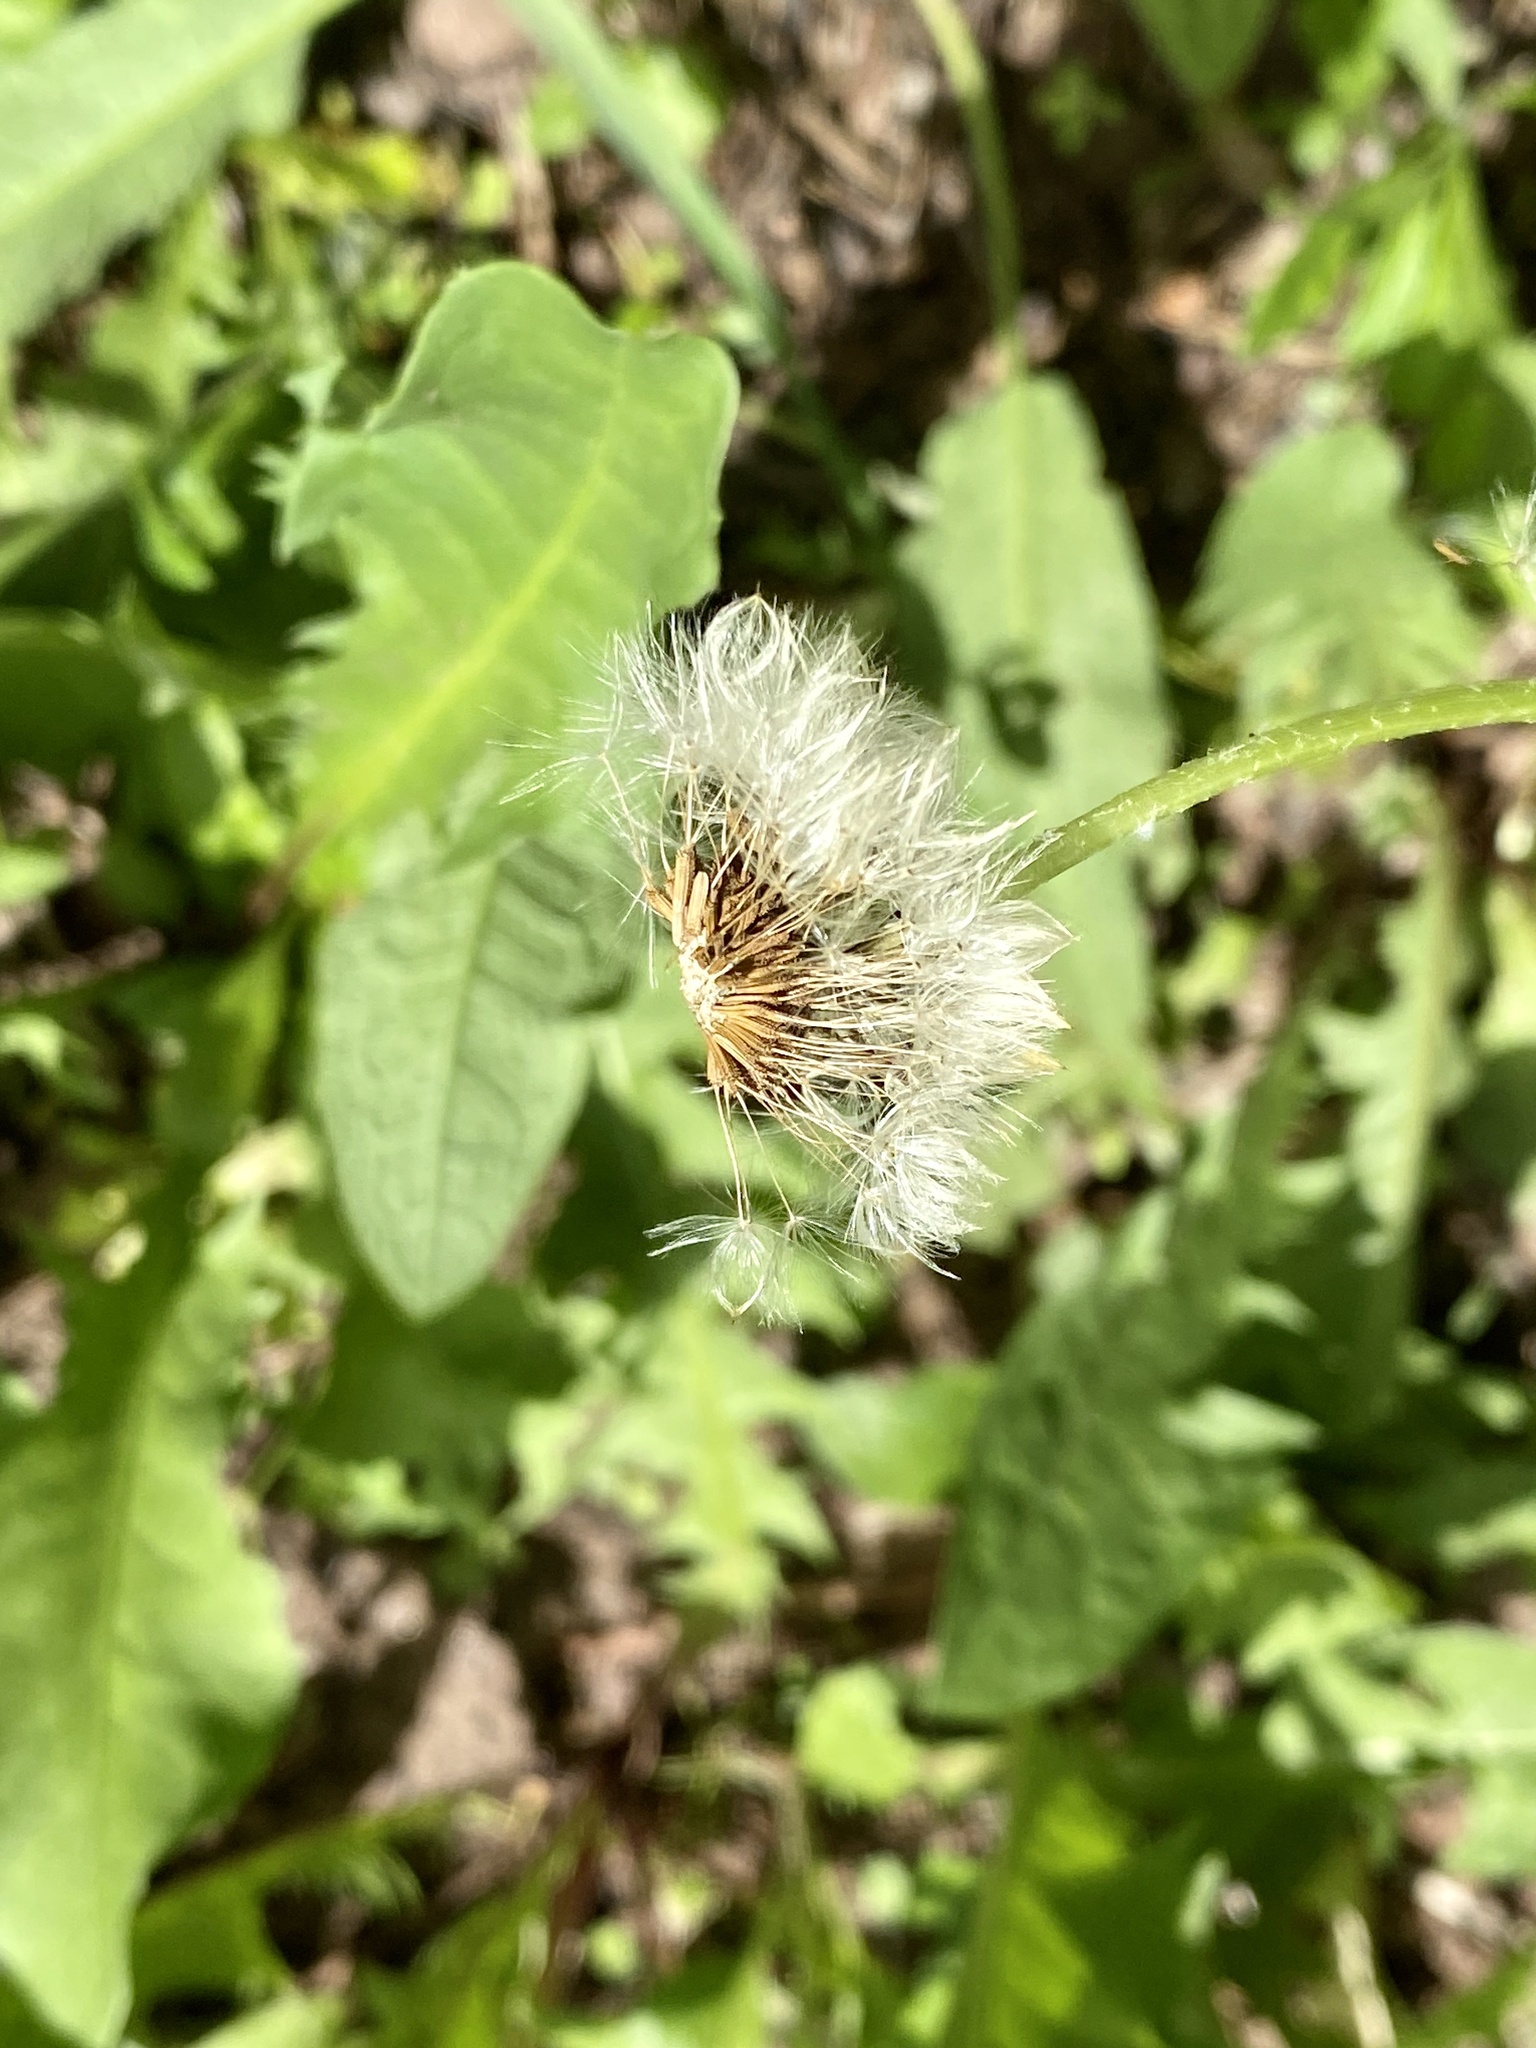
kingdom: Plantae
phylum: Tracheophyta
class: Magnoliopsida
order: Asterales
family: Asteraceae
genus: Taraxacum
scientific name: Taraxacum officinale
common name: Common dandelion
